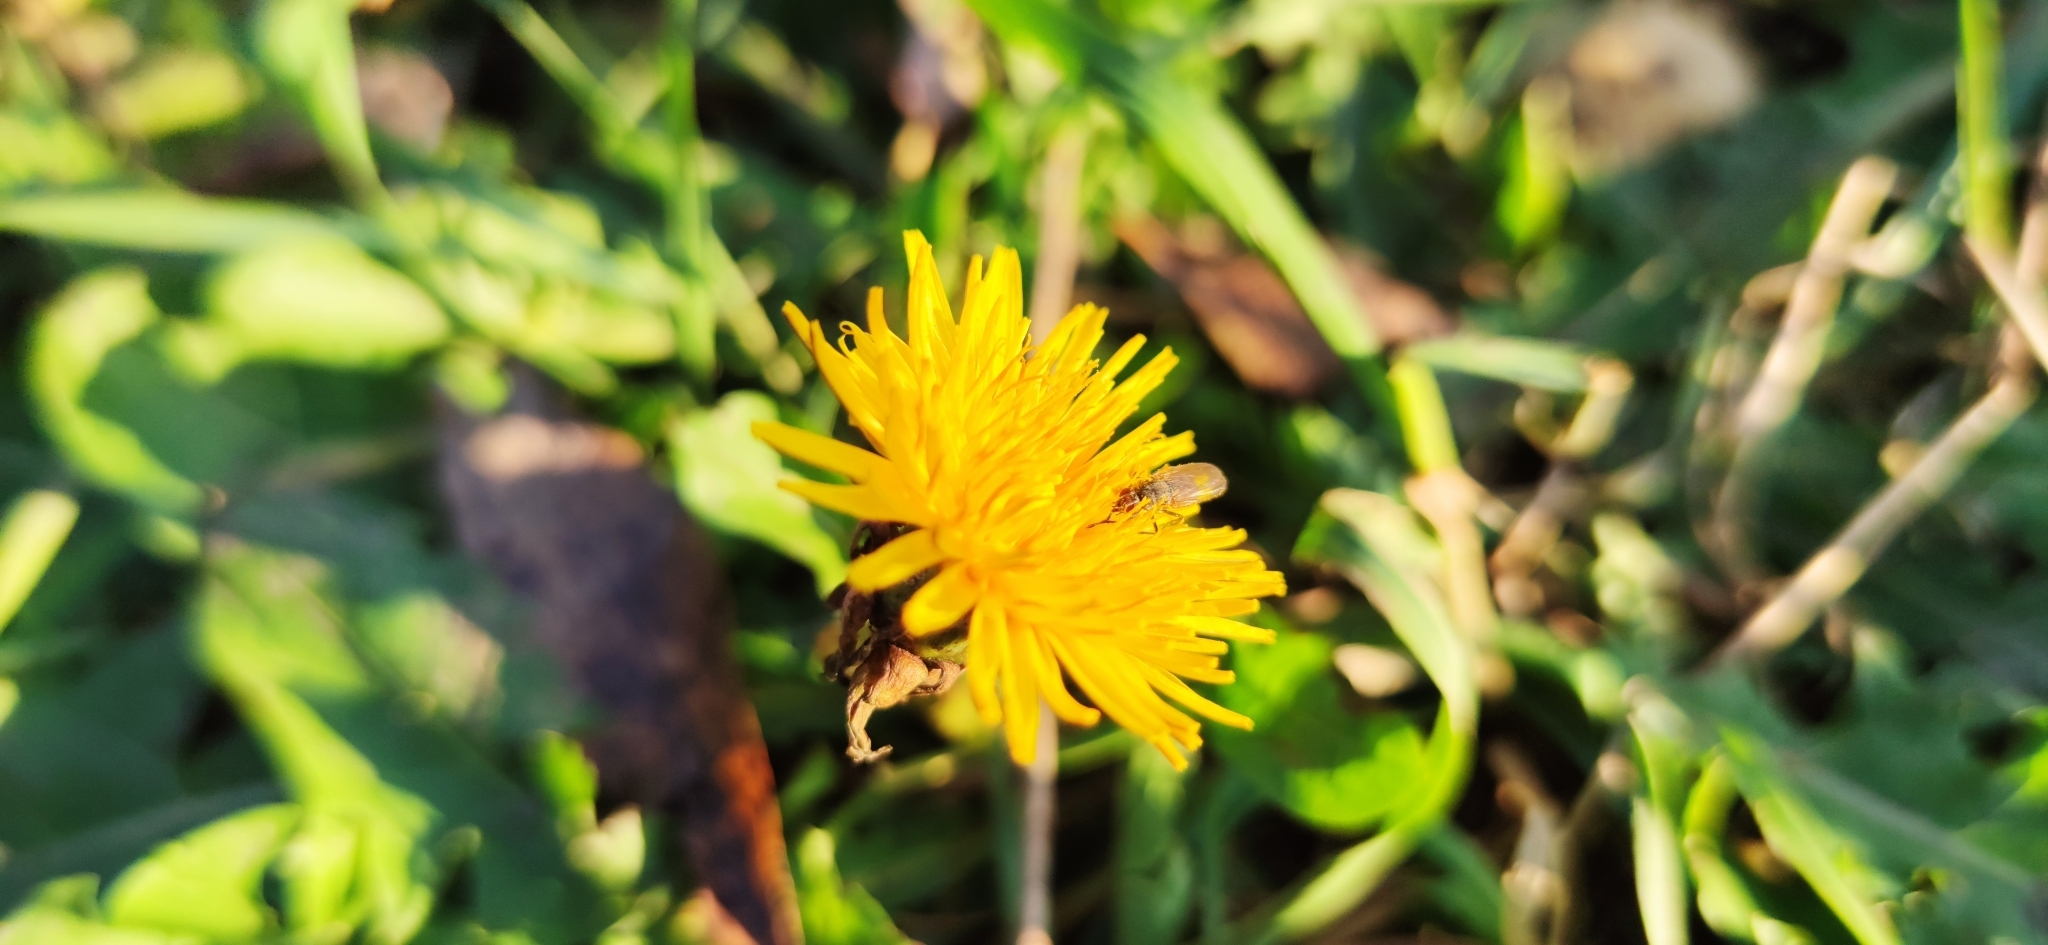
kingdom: Plantae
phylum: Tracheophyta
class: Magnoliopsida
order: Asterales
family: Asteraceae
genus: Taraxacum
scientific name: Taraxacum officinale
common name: Common dandelion
